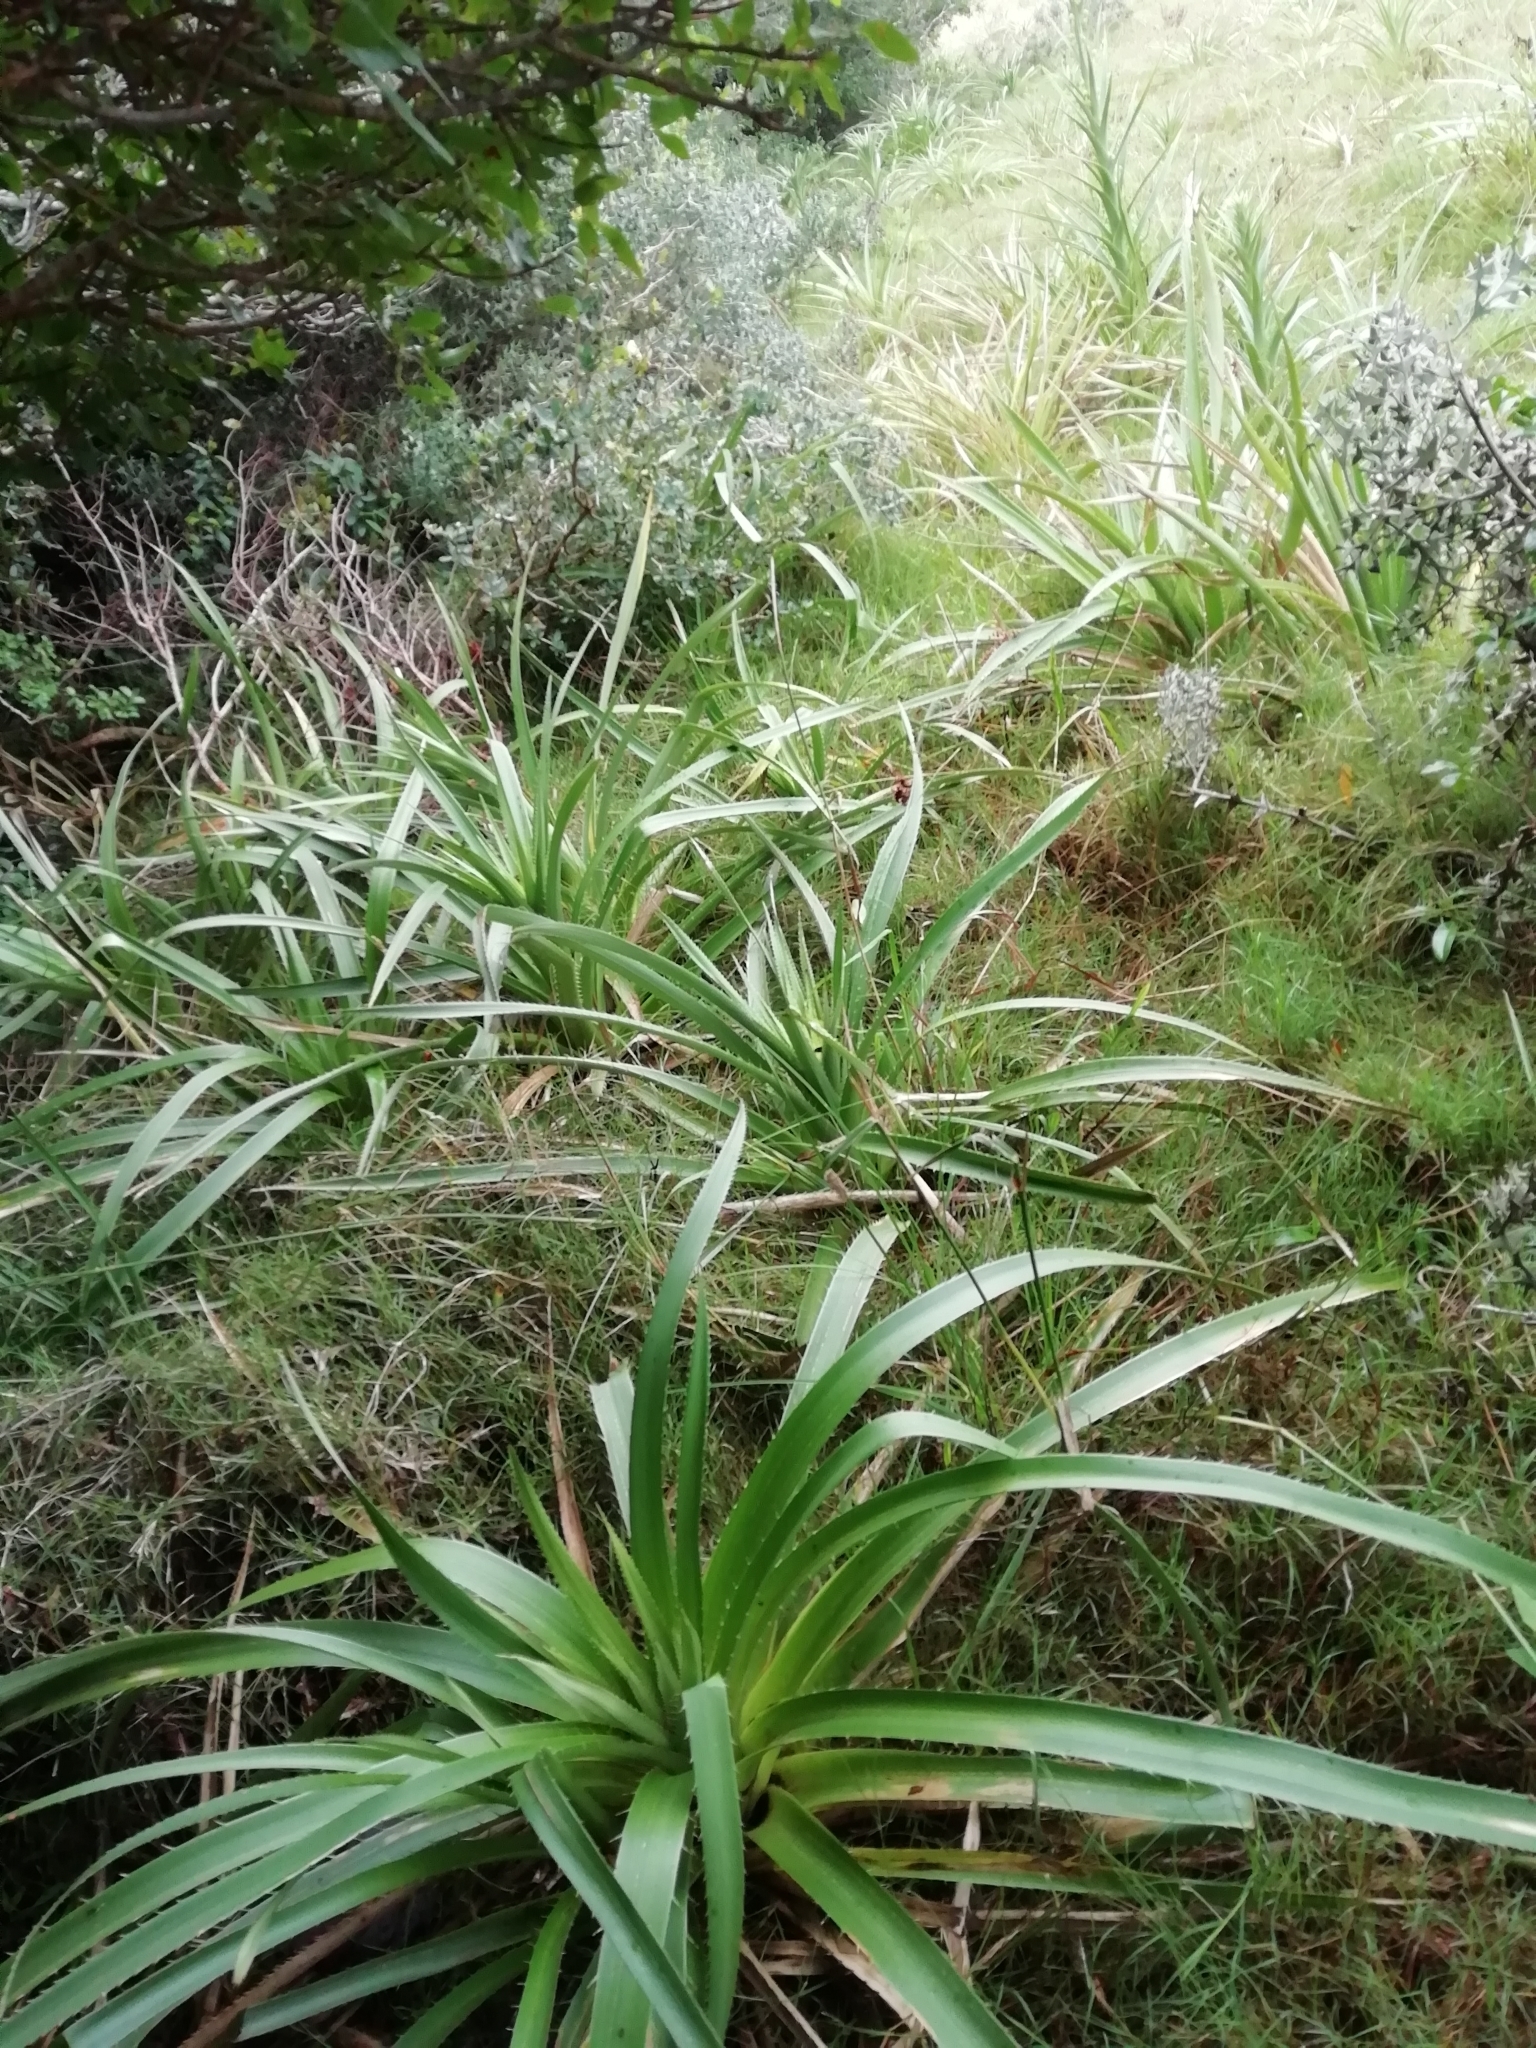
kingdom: Plantae
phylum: Tracheophyta
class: Magnoliopsida
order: Apiales
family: Apiaceae
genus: Eryngium
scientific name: Eryngium eburneum
